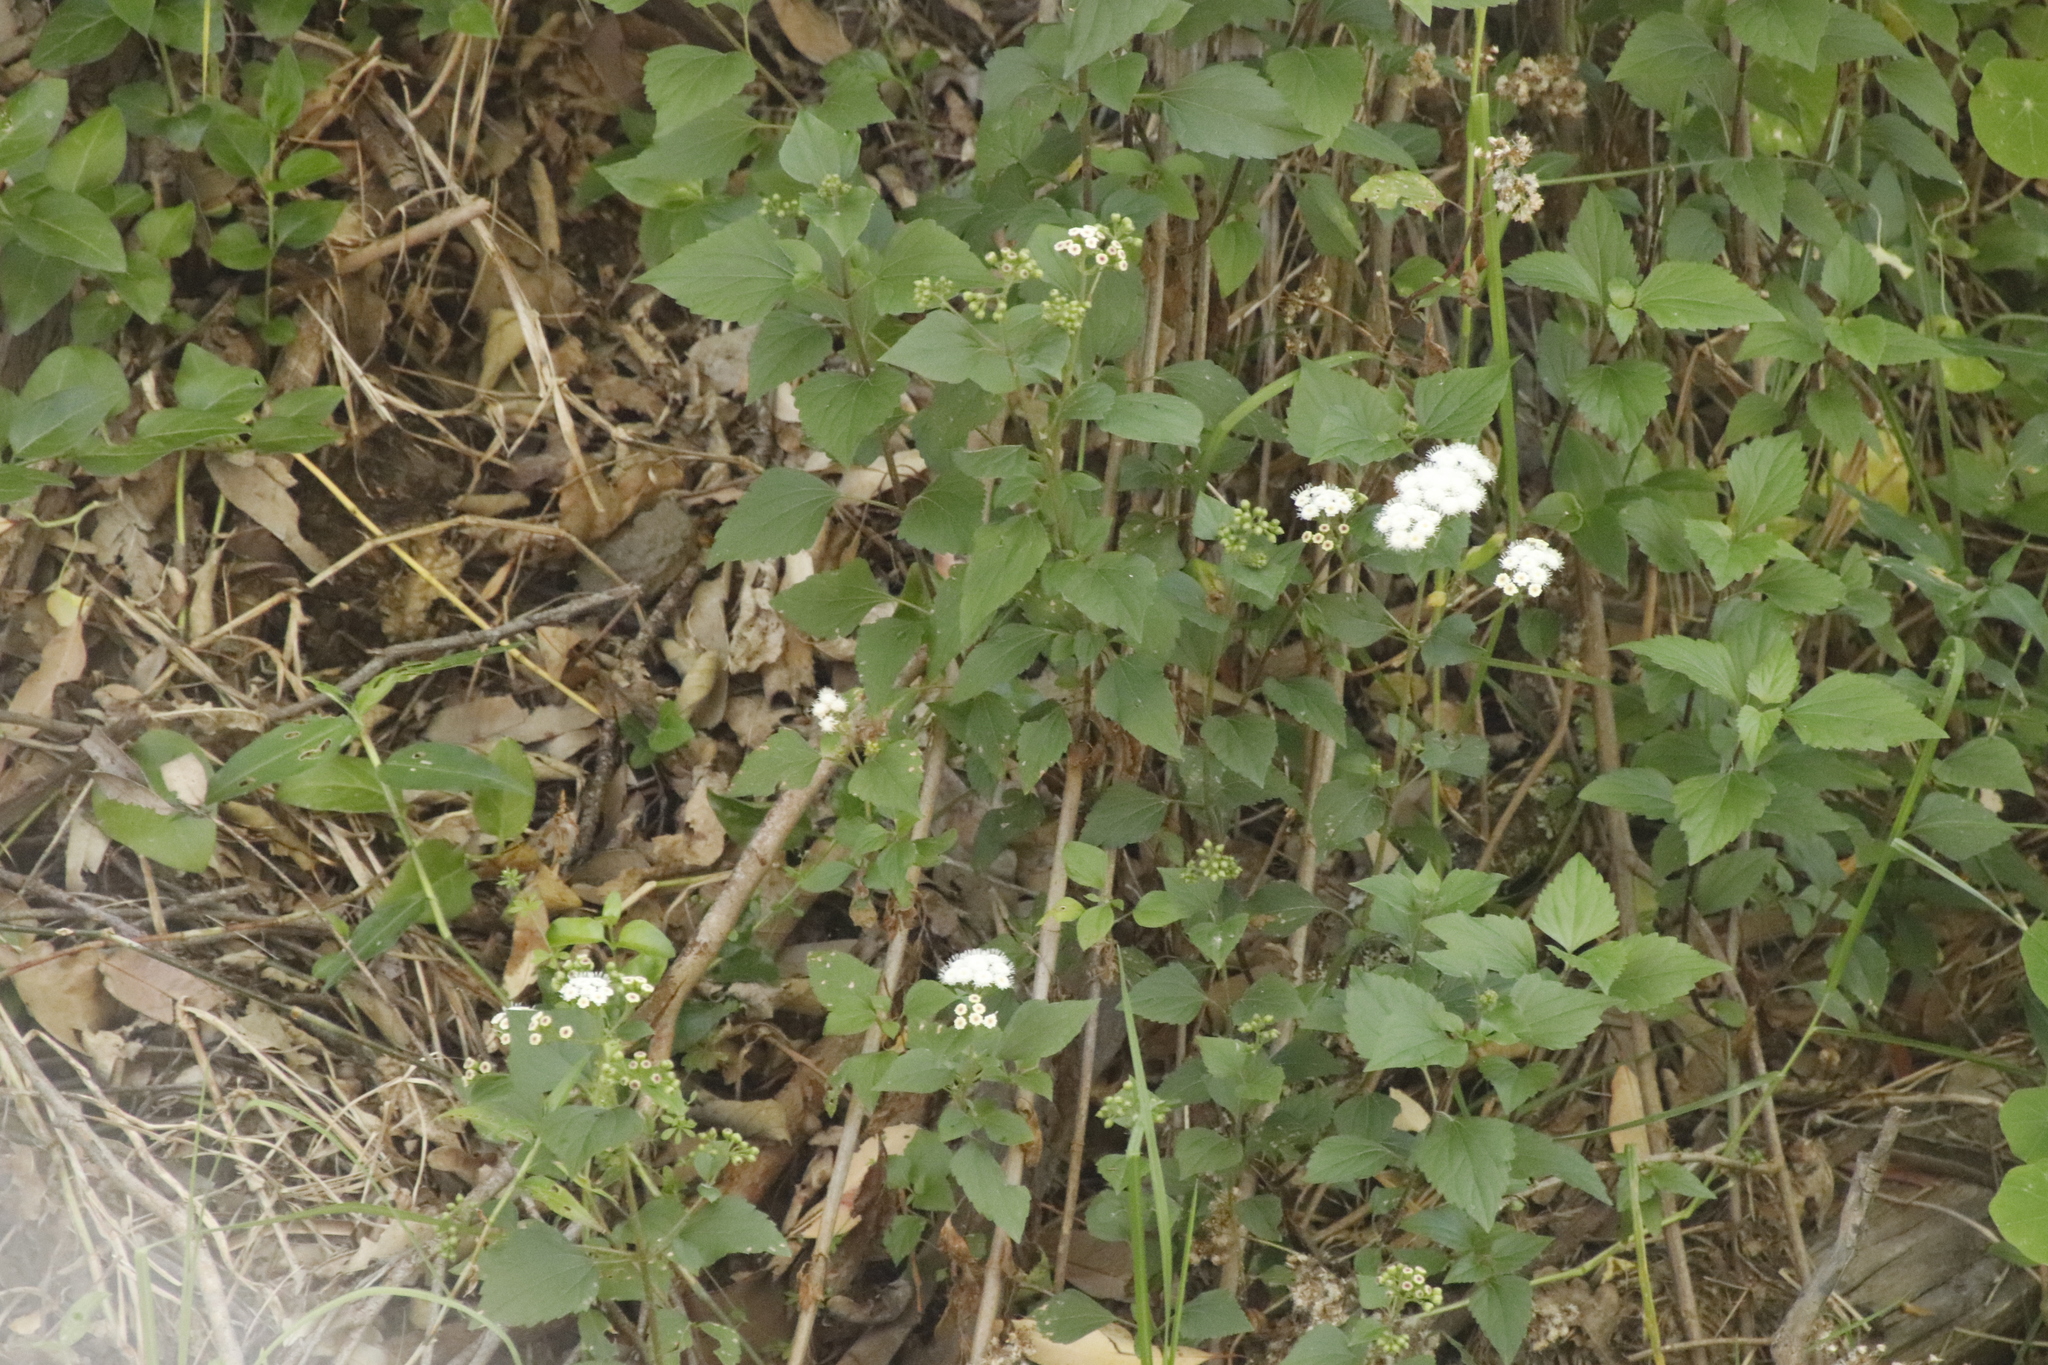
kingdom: Plantae
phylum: Tracheophyta
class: Magnoliopsida
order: Asterales
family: Asteraceae
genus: Ageratina
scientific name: Ageratina adenophora
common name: Sticky snakeroot
